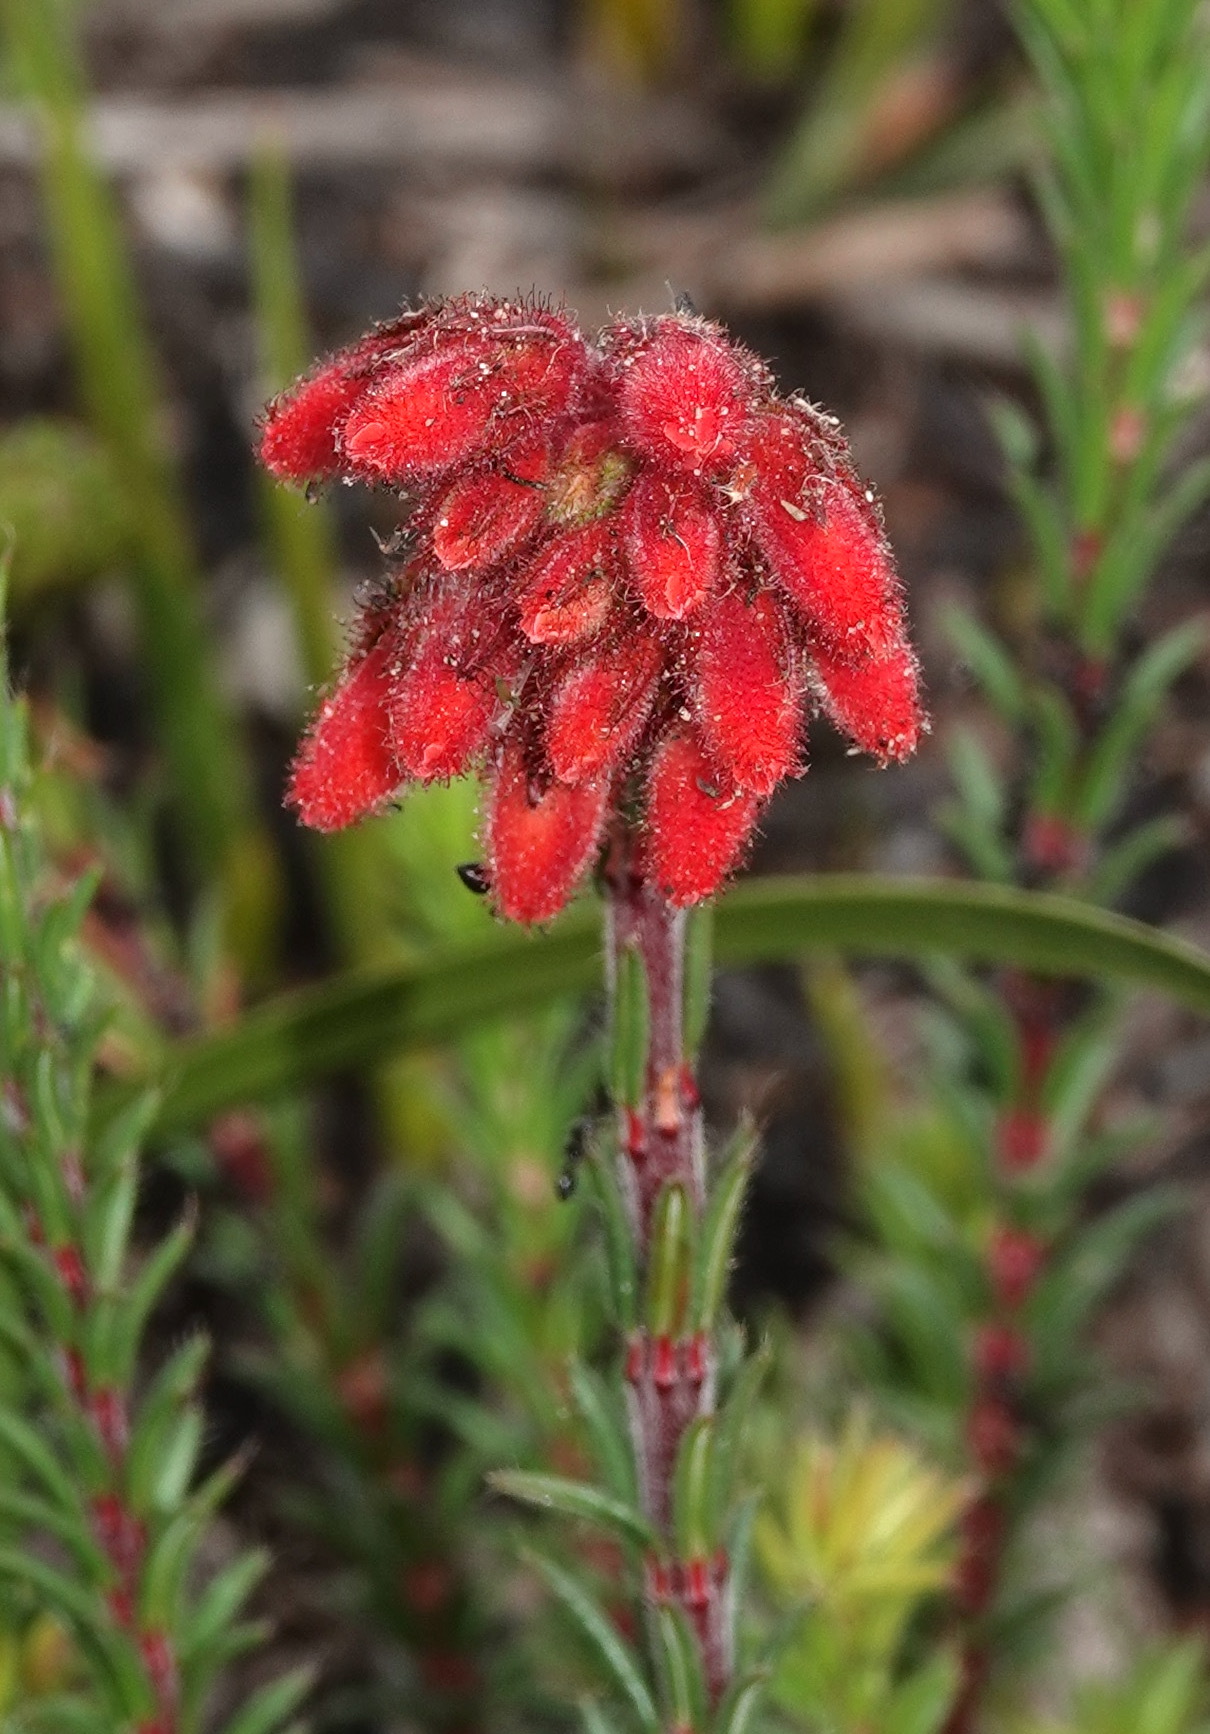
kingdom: Plantae
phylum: Tracheophyta
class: Magnoliopsida
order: Ericales
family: Ericaceae
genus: Erica
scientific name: Erica cerinthoides
